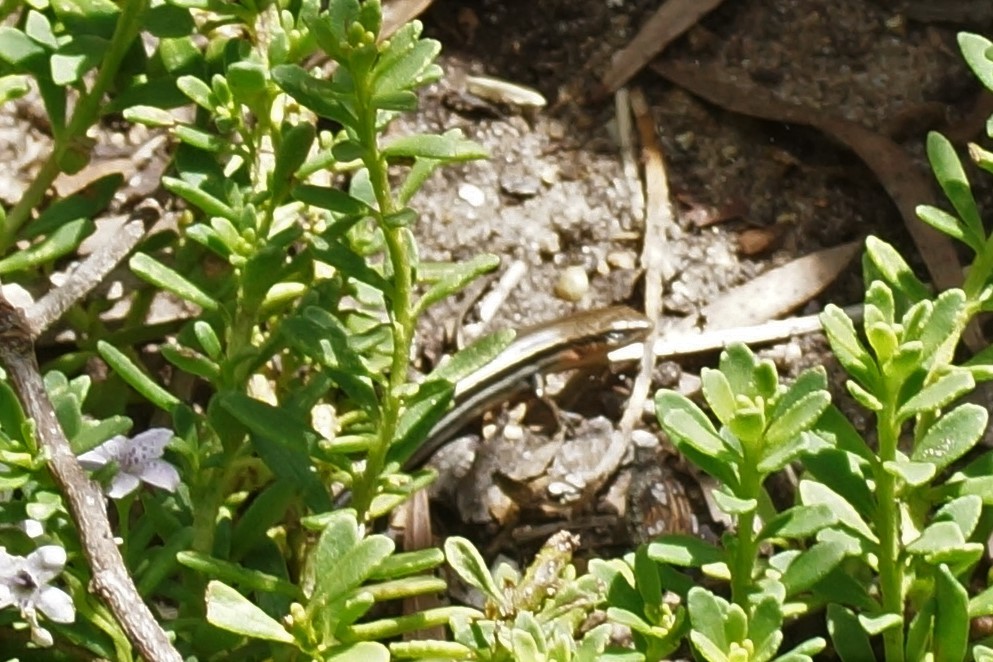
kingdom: Animalia
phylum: Chordata
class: Squamata
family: Scincidae
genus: Lampropholis
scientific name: Lampropholis guichenoti
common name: Garden skink
